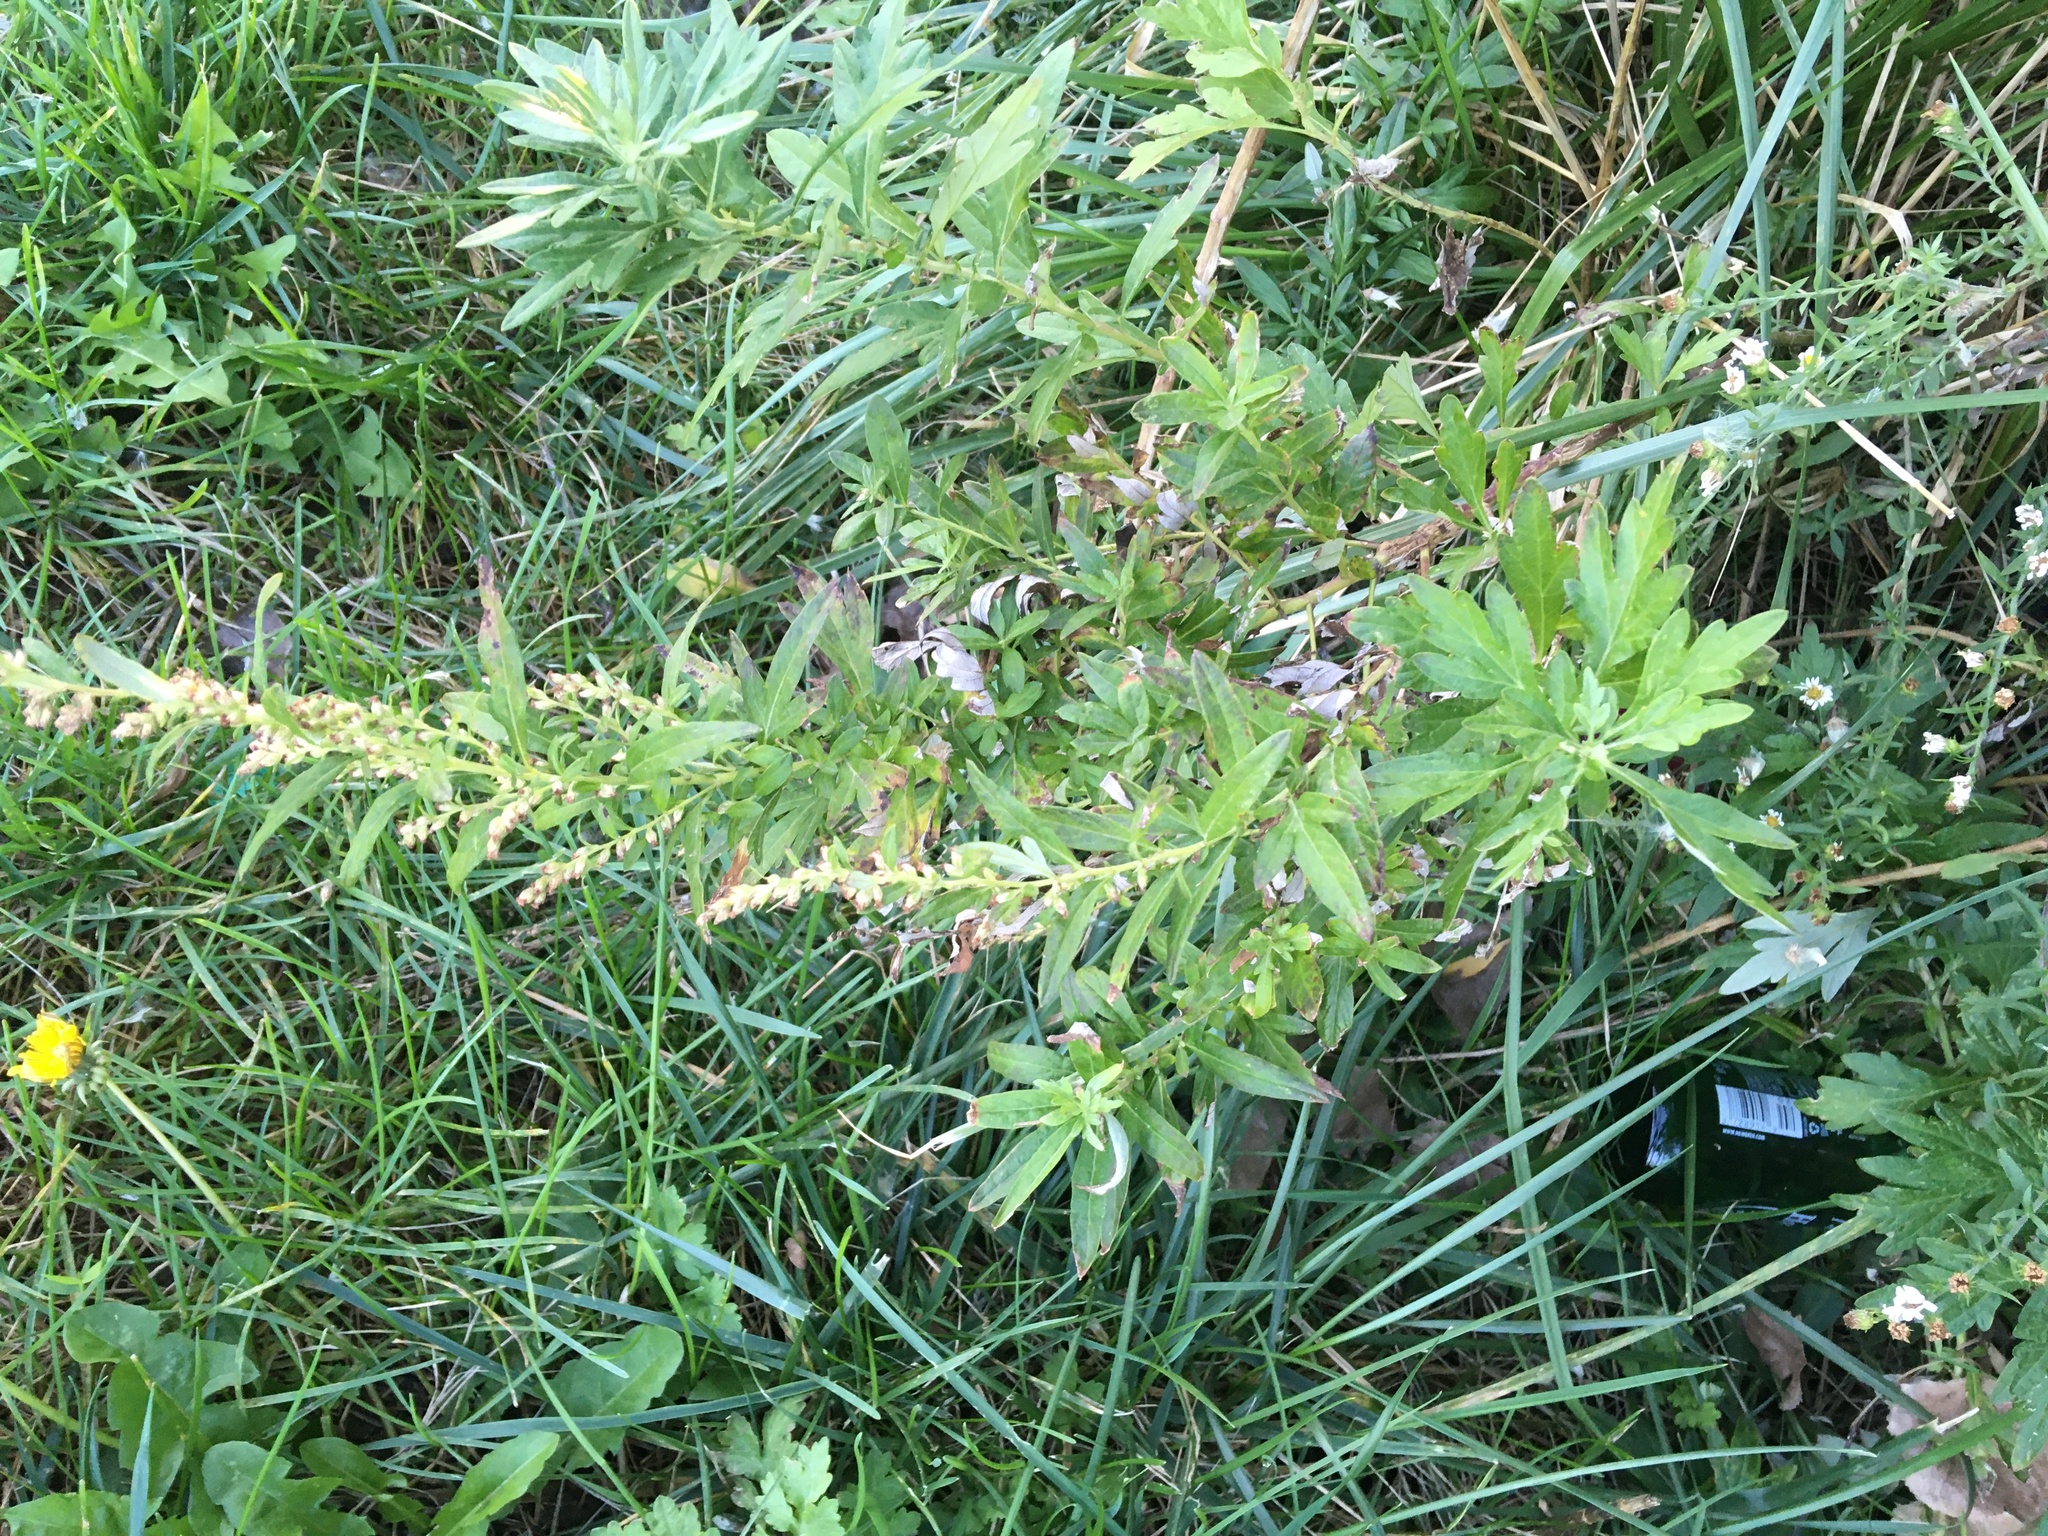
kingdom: Plantae
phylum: Tracheophyta
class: Magnoliopsida
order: Asterales
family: Asteraceae
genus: Artemisia
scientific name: Artemisia vulgaris
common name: Mugwort
